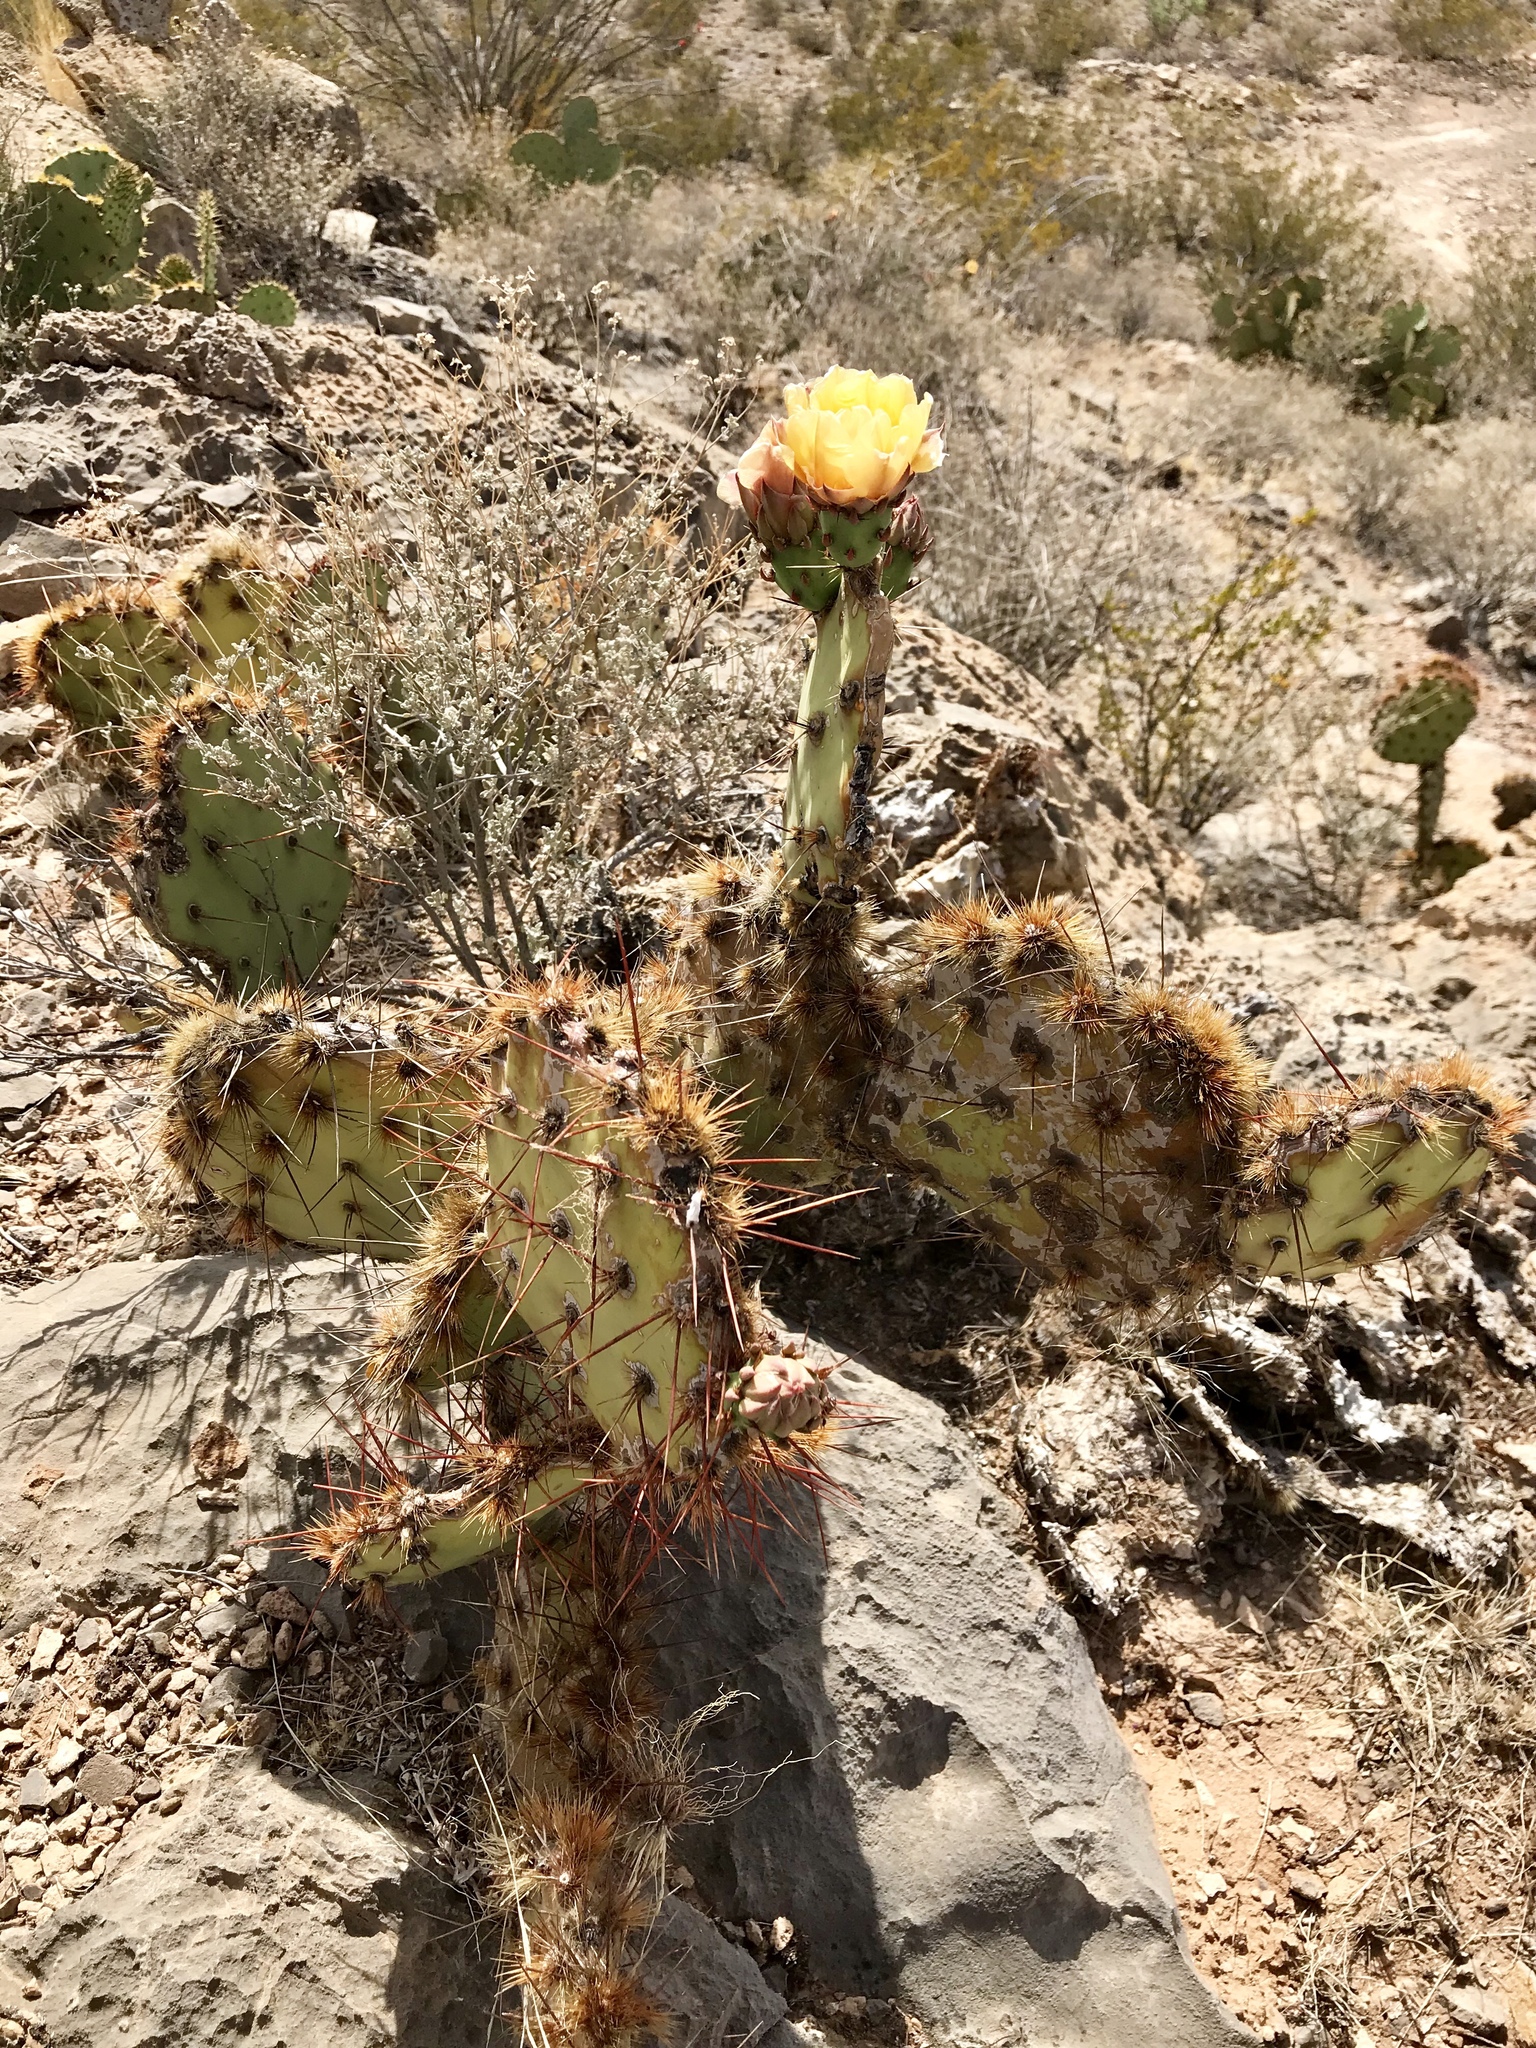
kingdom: Plantae
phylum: Tracheophyta
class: Magnoliopsida
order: Caryophyllales
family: Cactaceae
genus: Opuntia
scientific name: Opuntia phaeacantha
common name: New mexico prickly-pear
